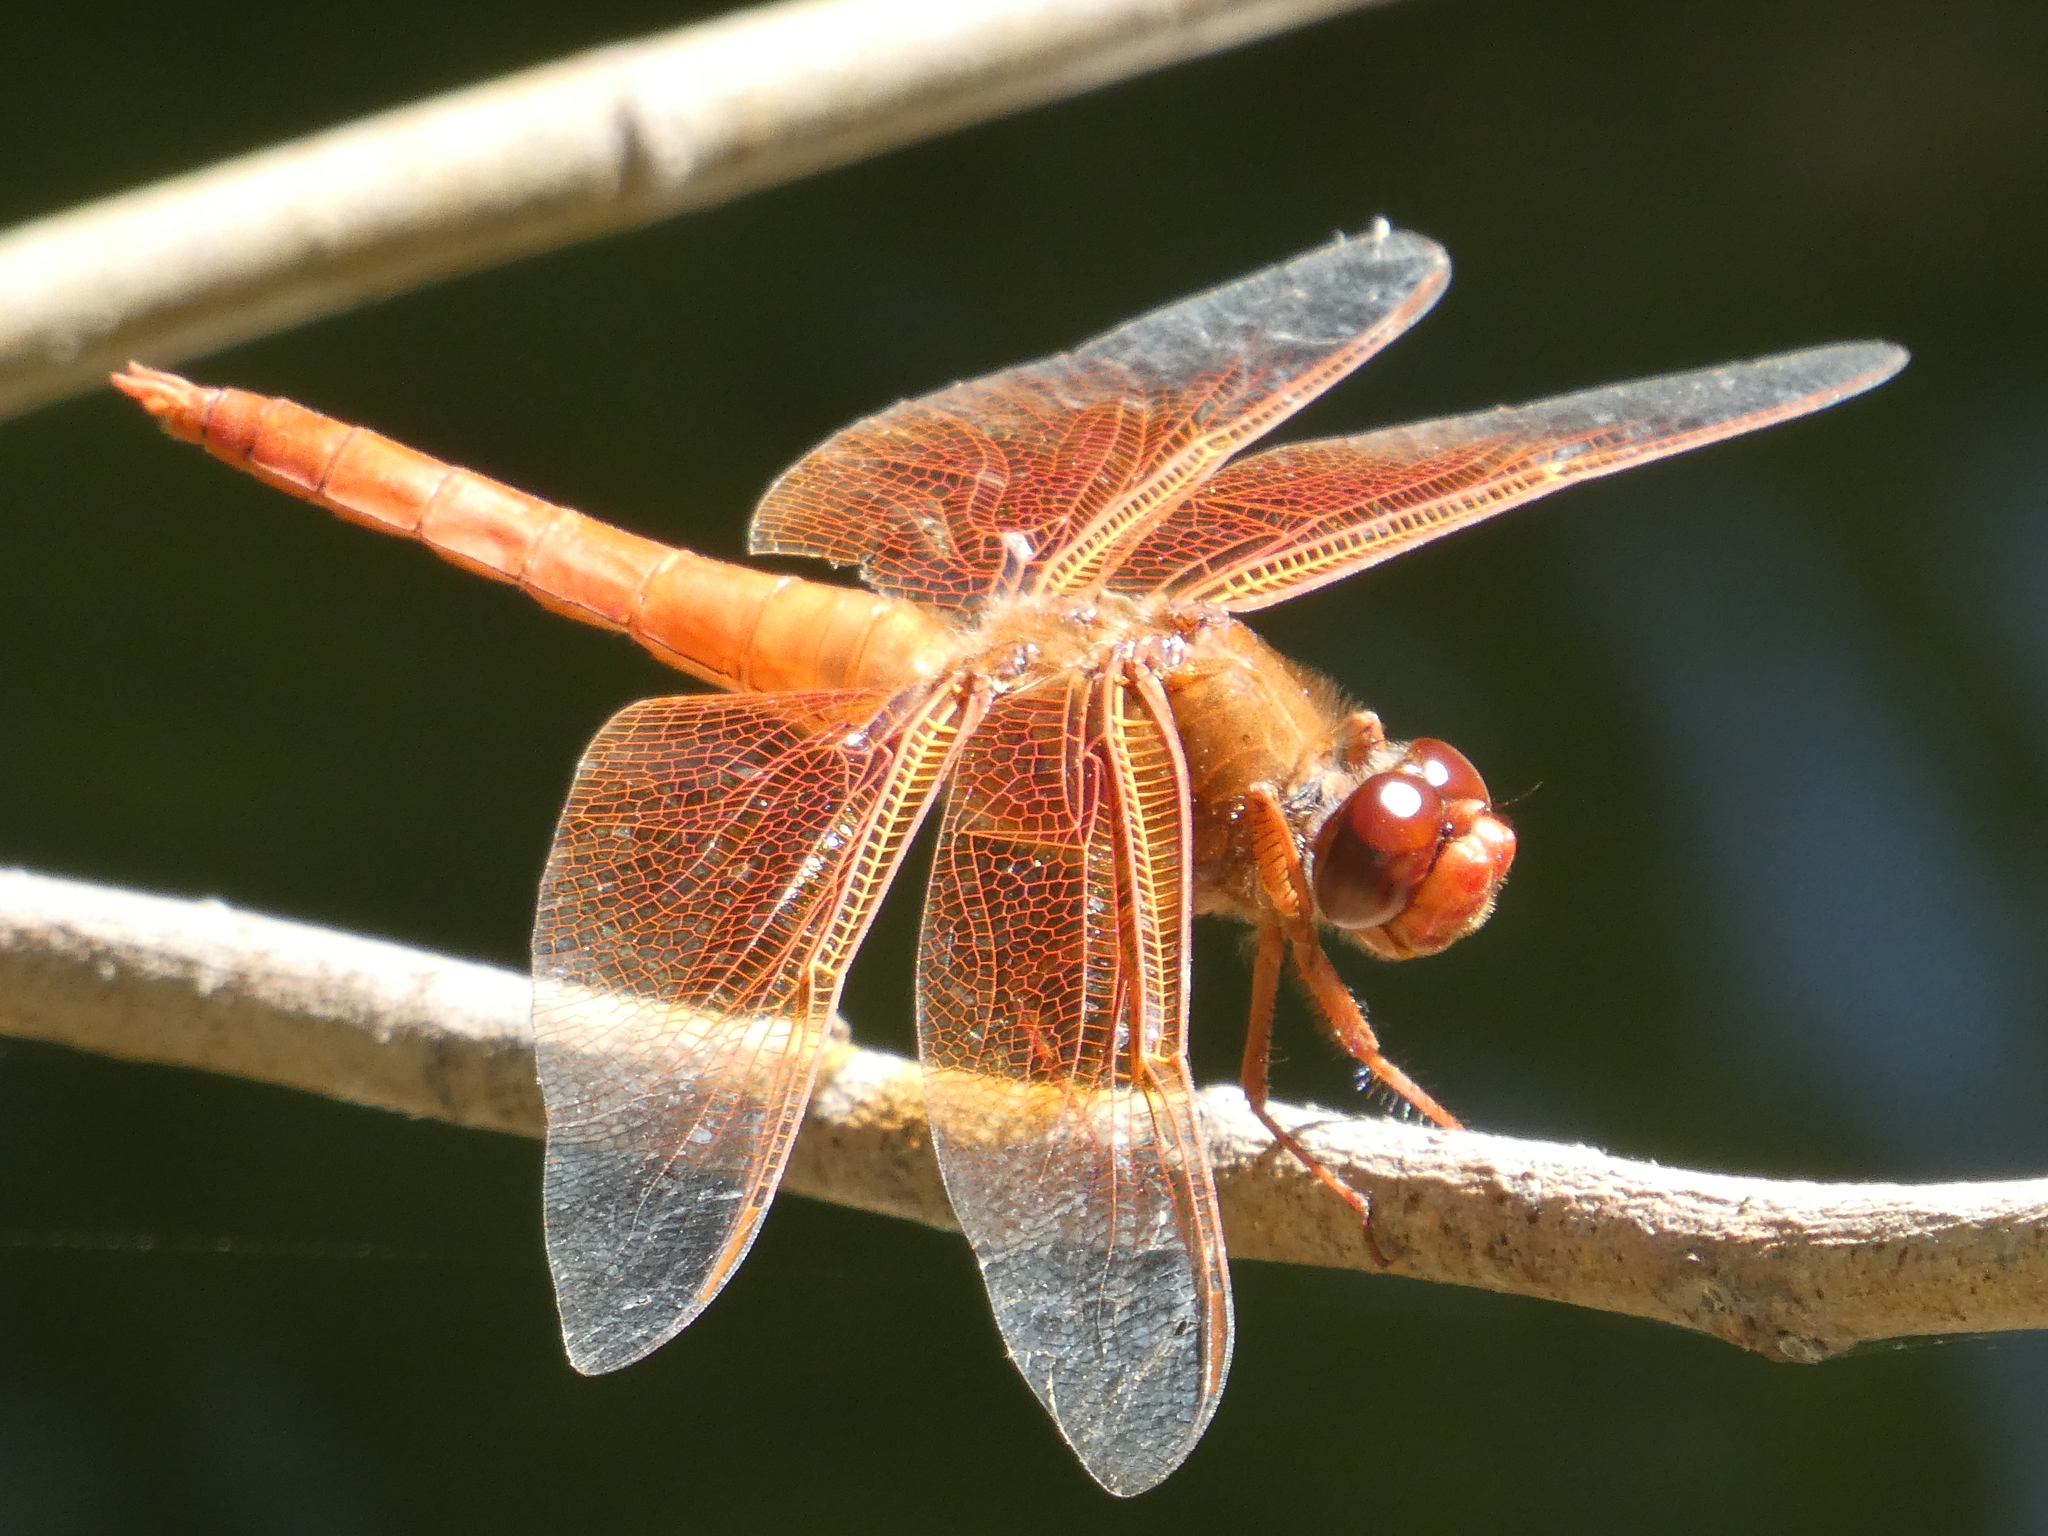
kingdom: Animalia
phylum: Arthropoda
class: Insecta
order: Odonata
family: Libellulidae
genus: Libellula
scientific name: Libellula saturata
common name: Flame skimmer
